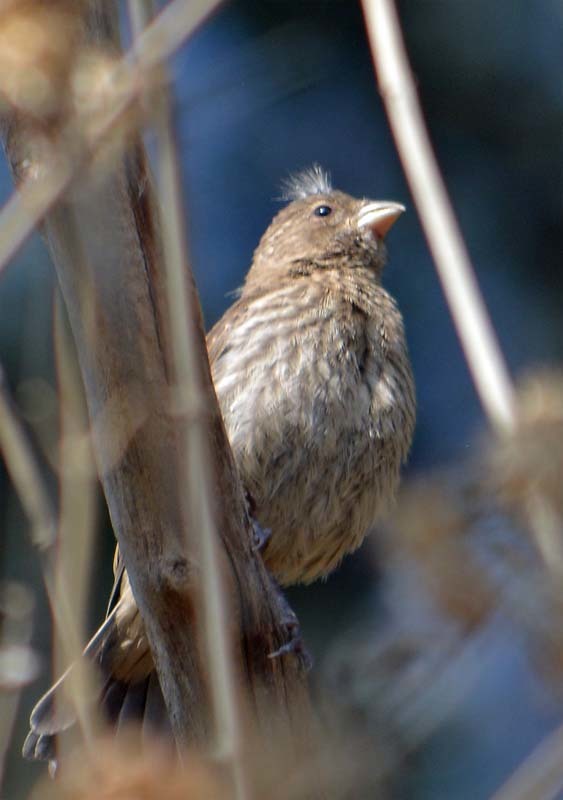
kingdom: Animalia
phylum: Chordata
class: Aves
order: Passeriformes
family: Fringillidae
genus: Haemorhous
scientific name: Haemorhous mexicanus
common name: House finch
